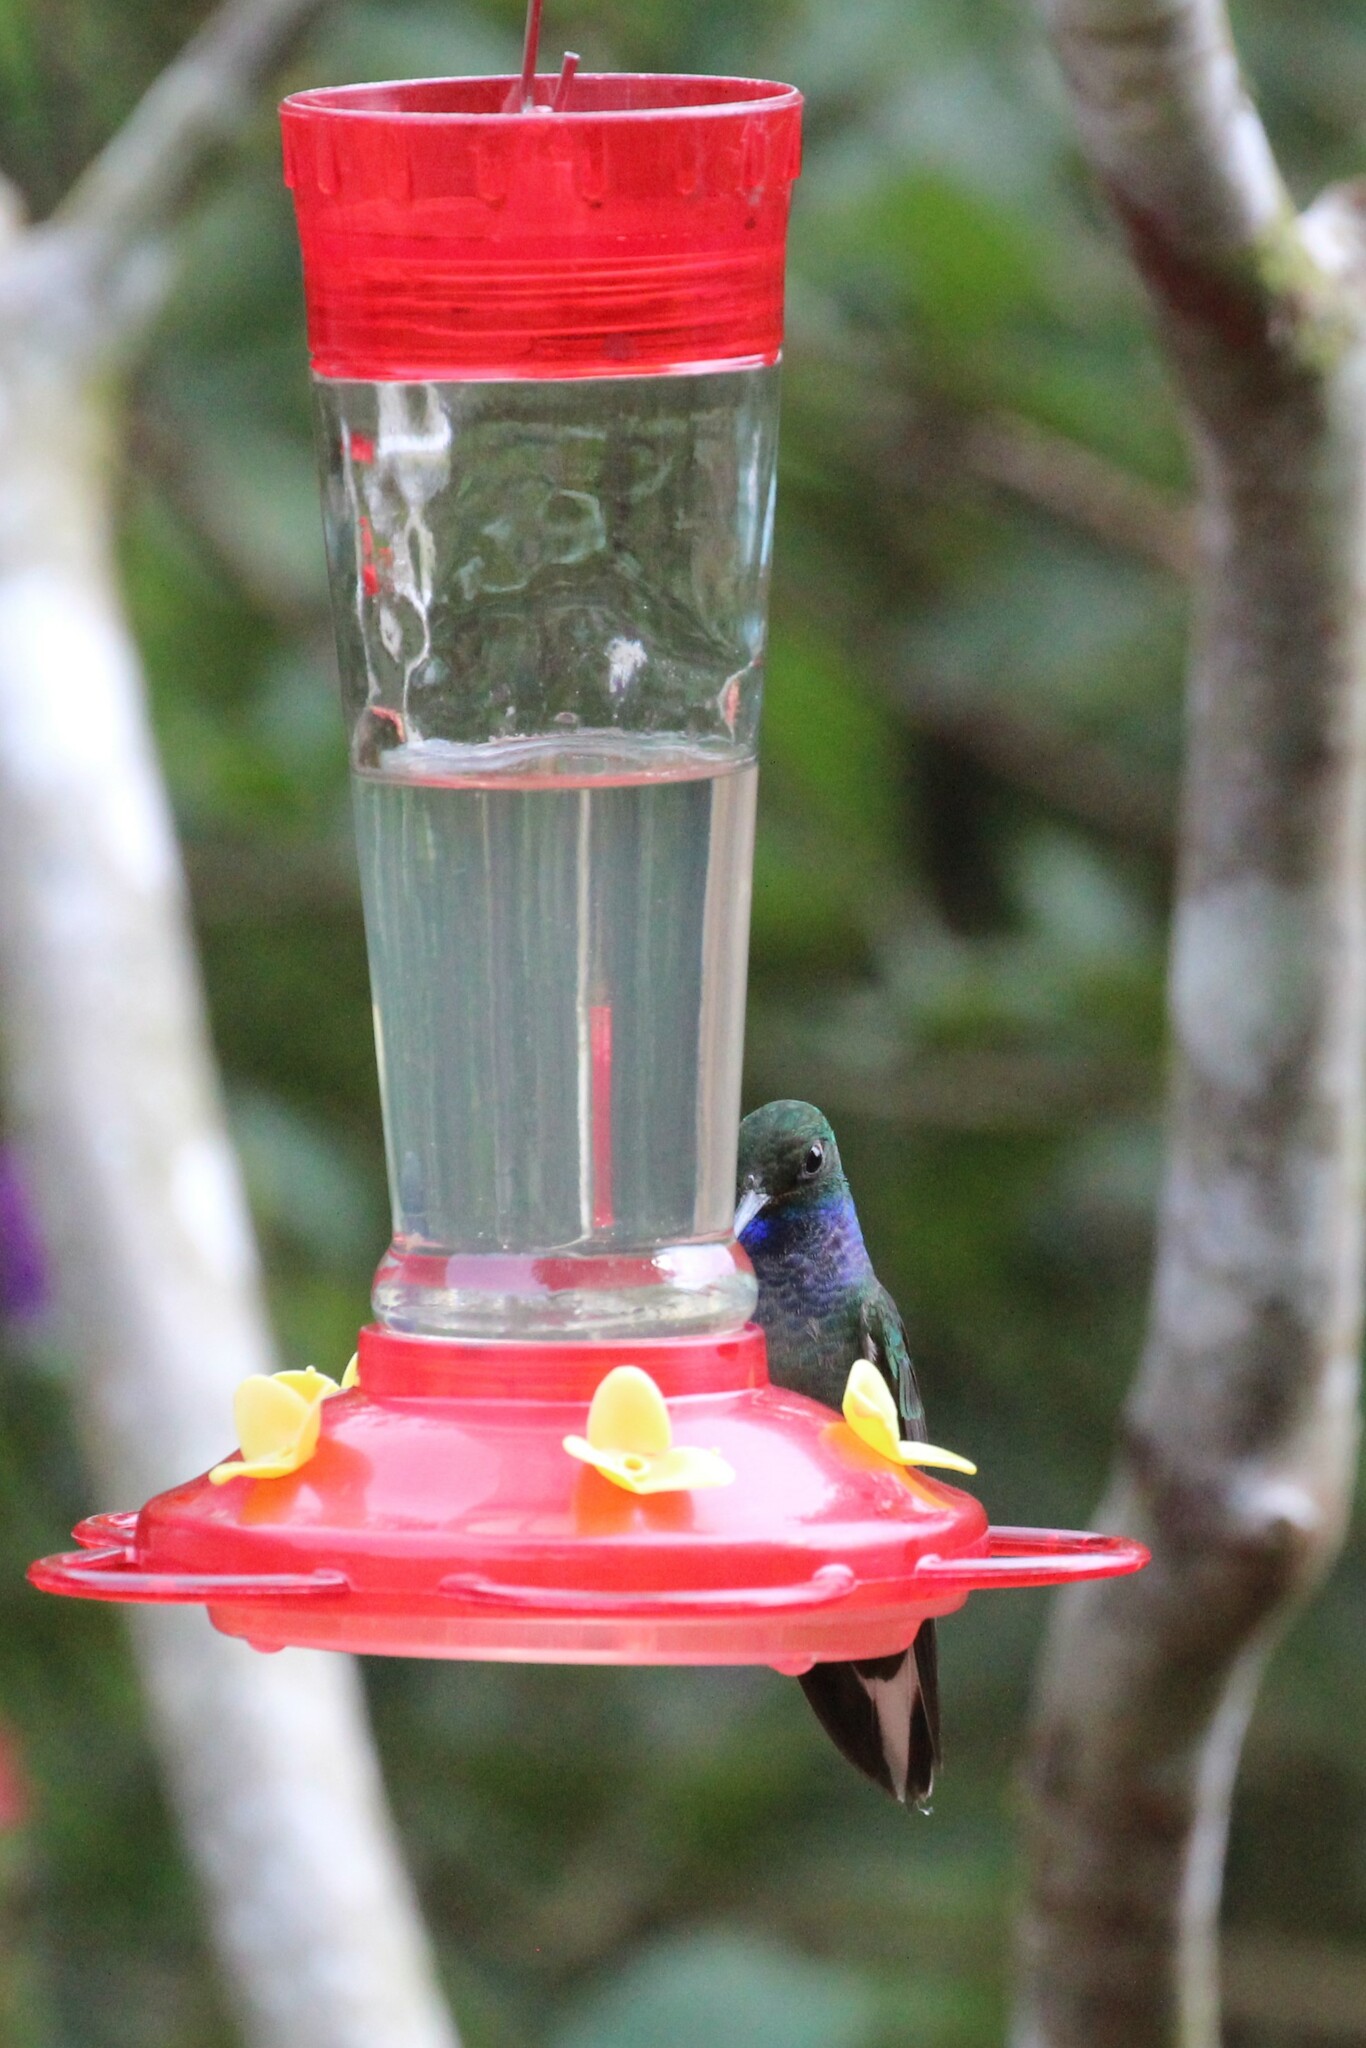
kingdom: Animalia
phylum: Chordata
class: Aves
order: Apodiformes
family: Trochilidae
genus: Urochroa
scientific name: Urochroa leucura
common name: Green-backed hillstar
